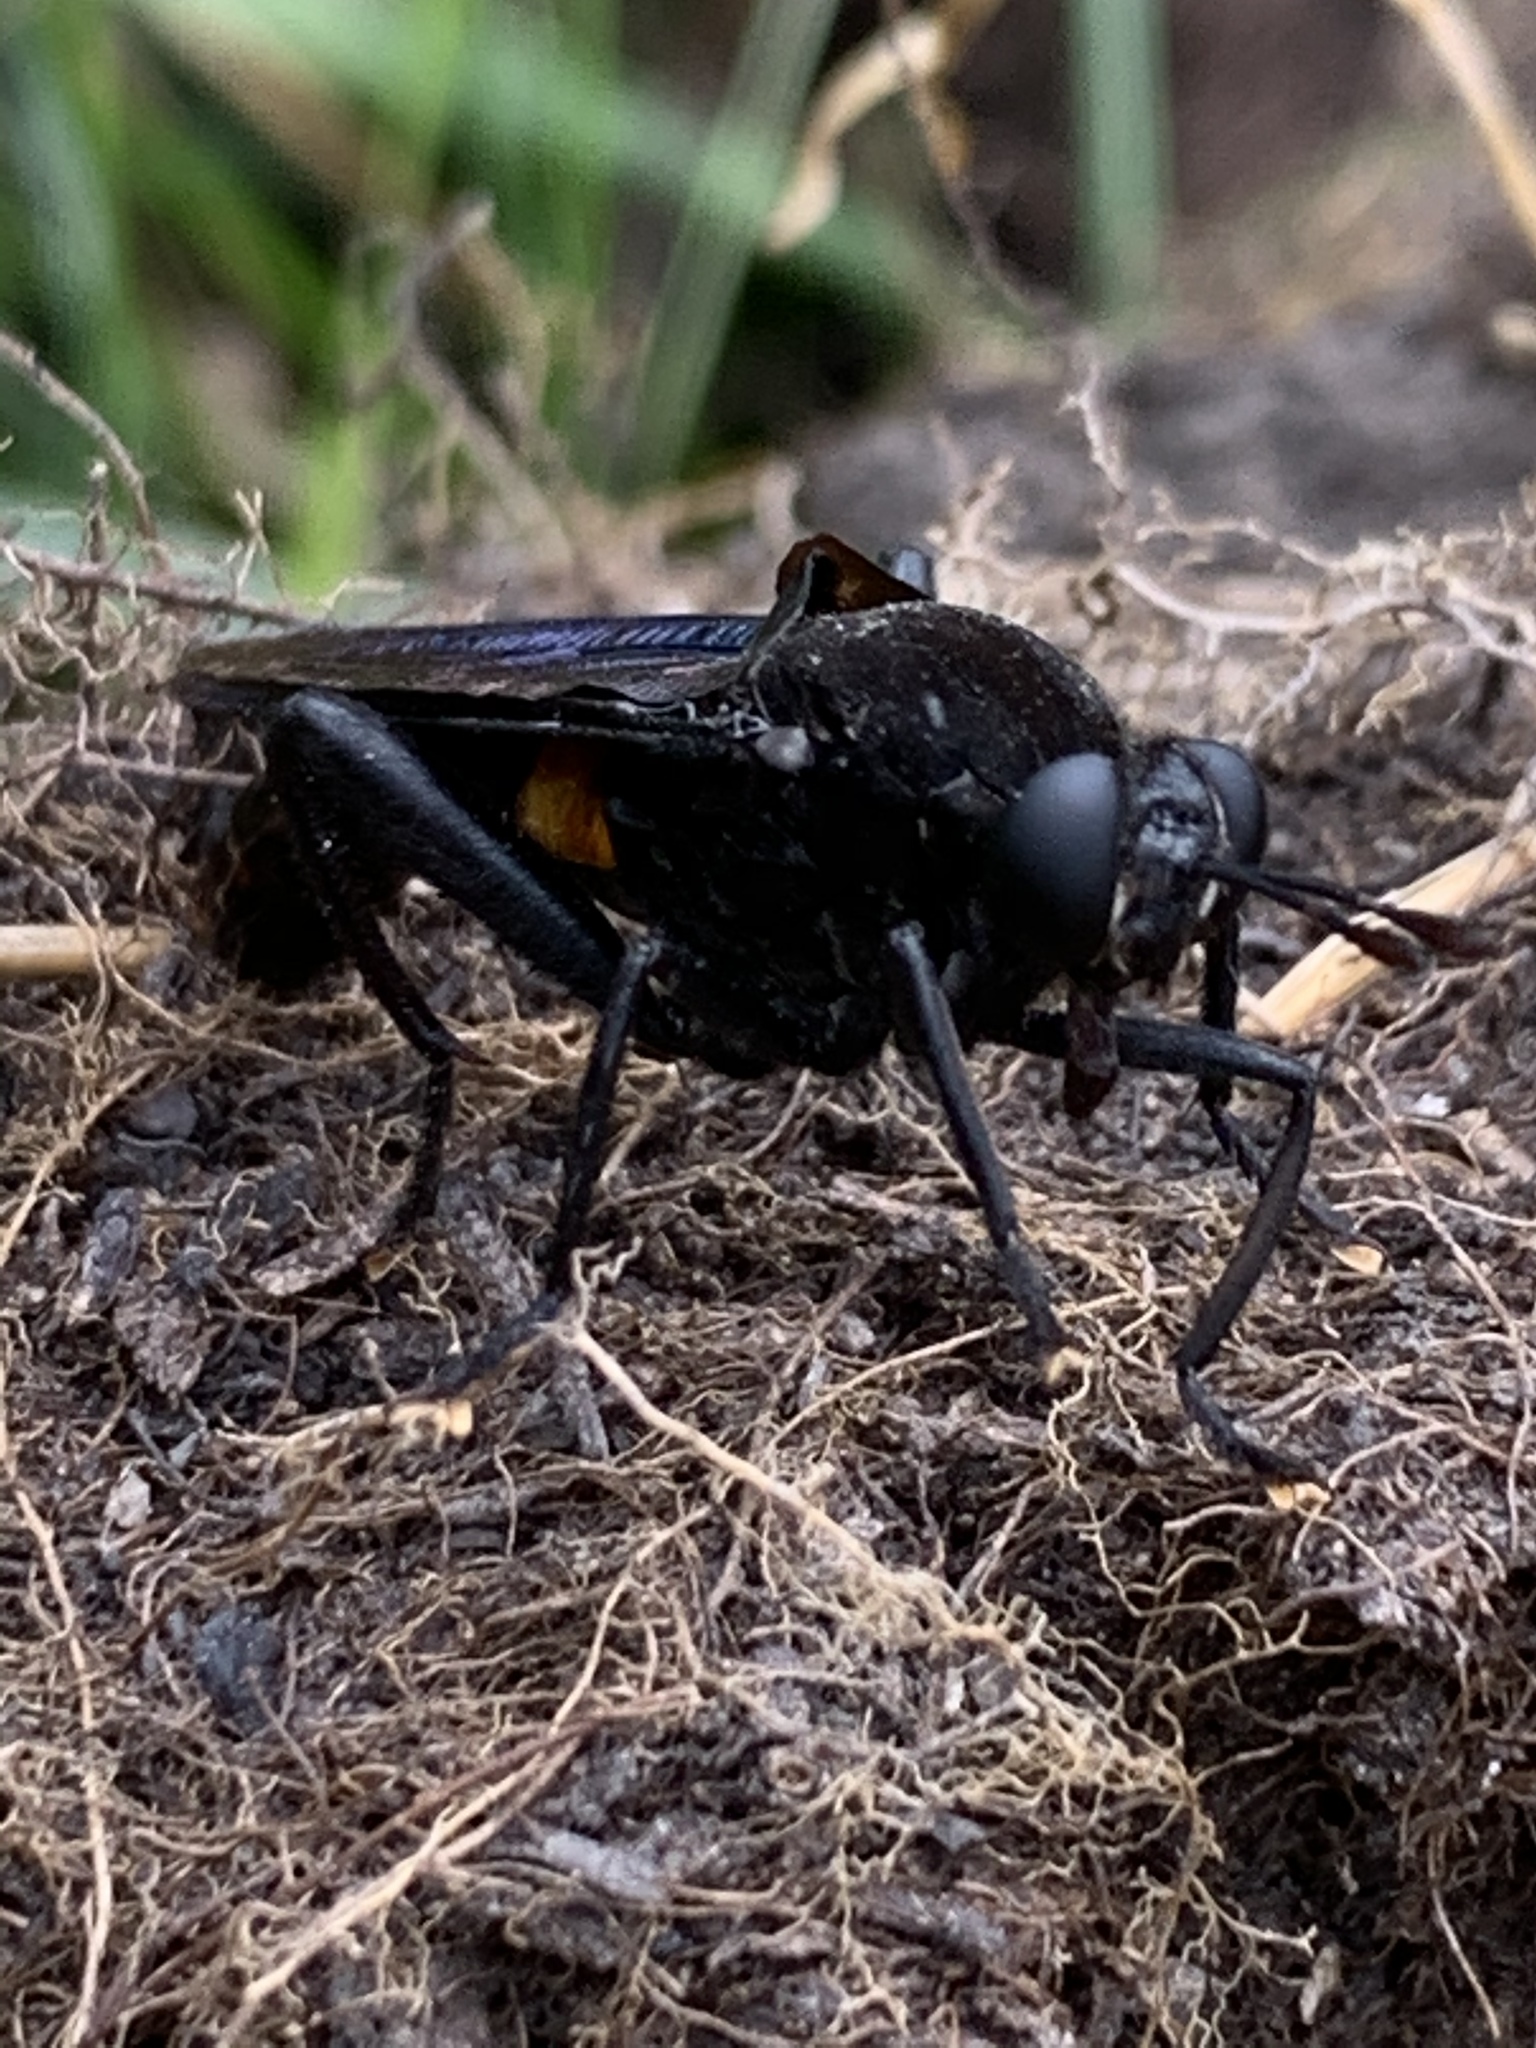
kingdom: Animalia
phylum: Arthropoda
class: Insecta
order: Diptera
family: Mydidae
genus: Mydas
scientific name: Mydas clavatus
